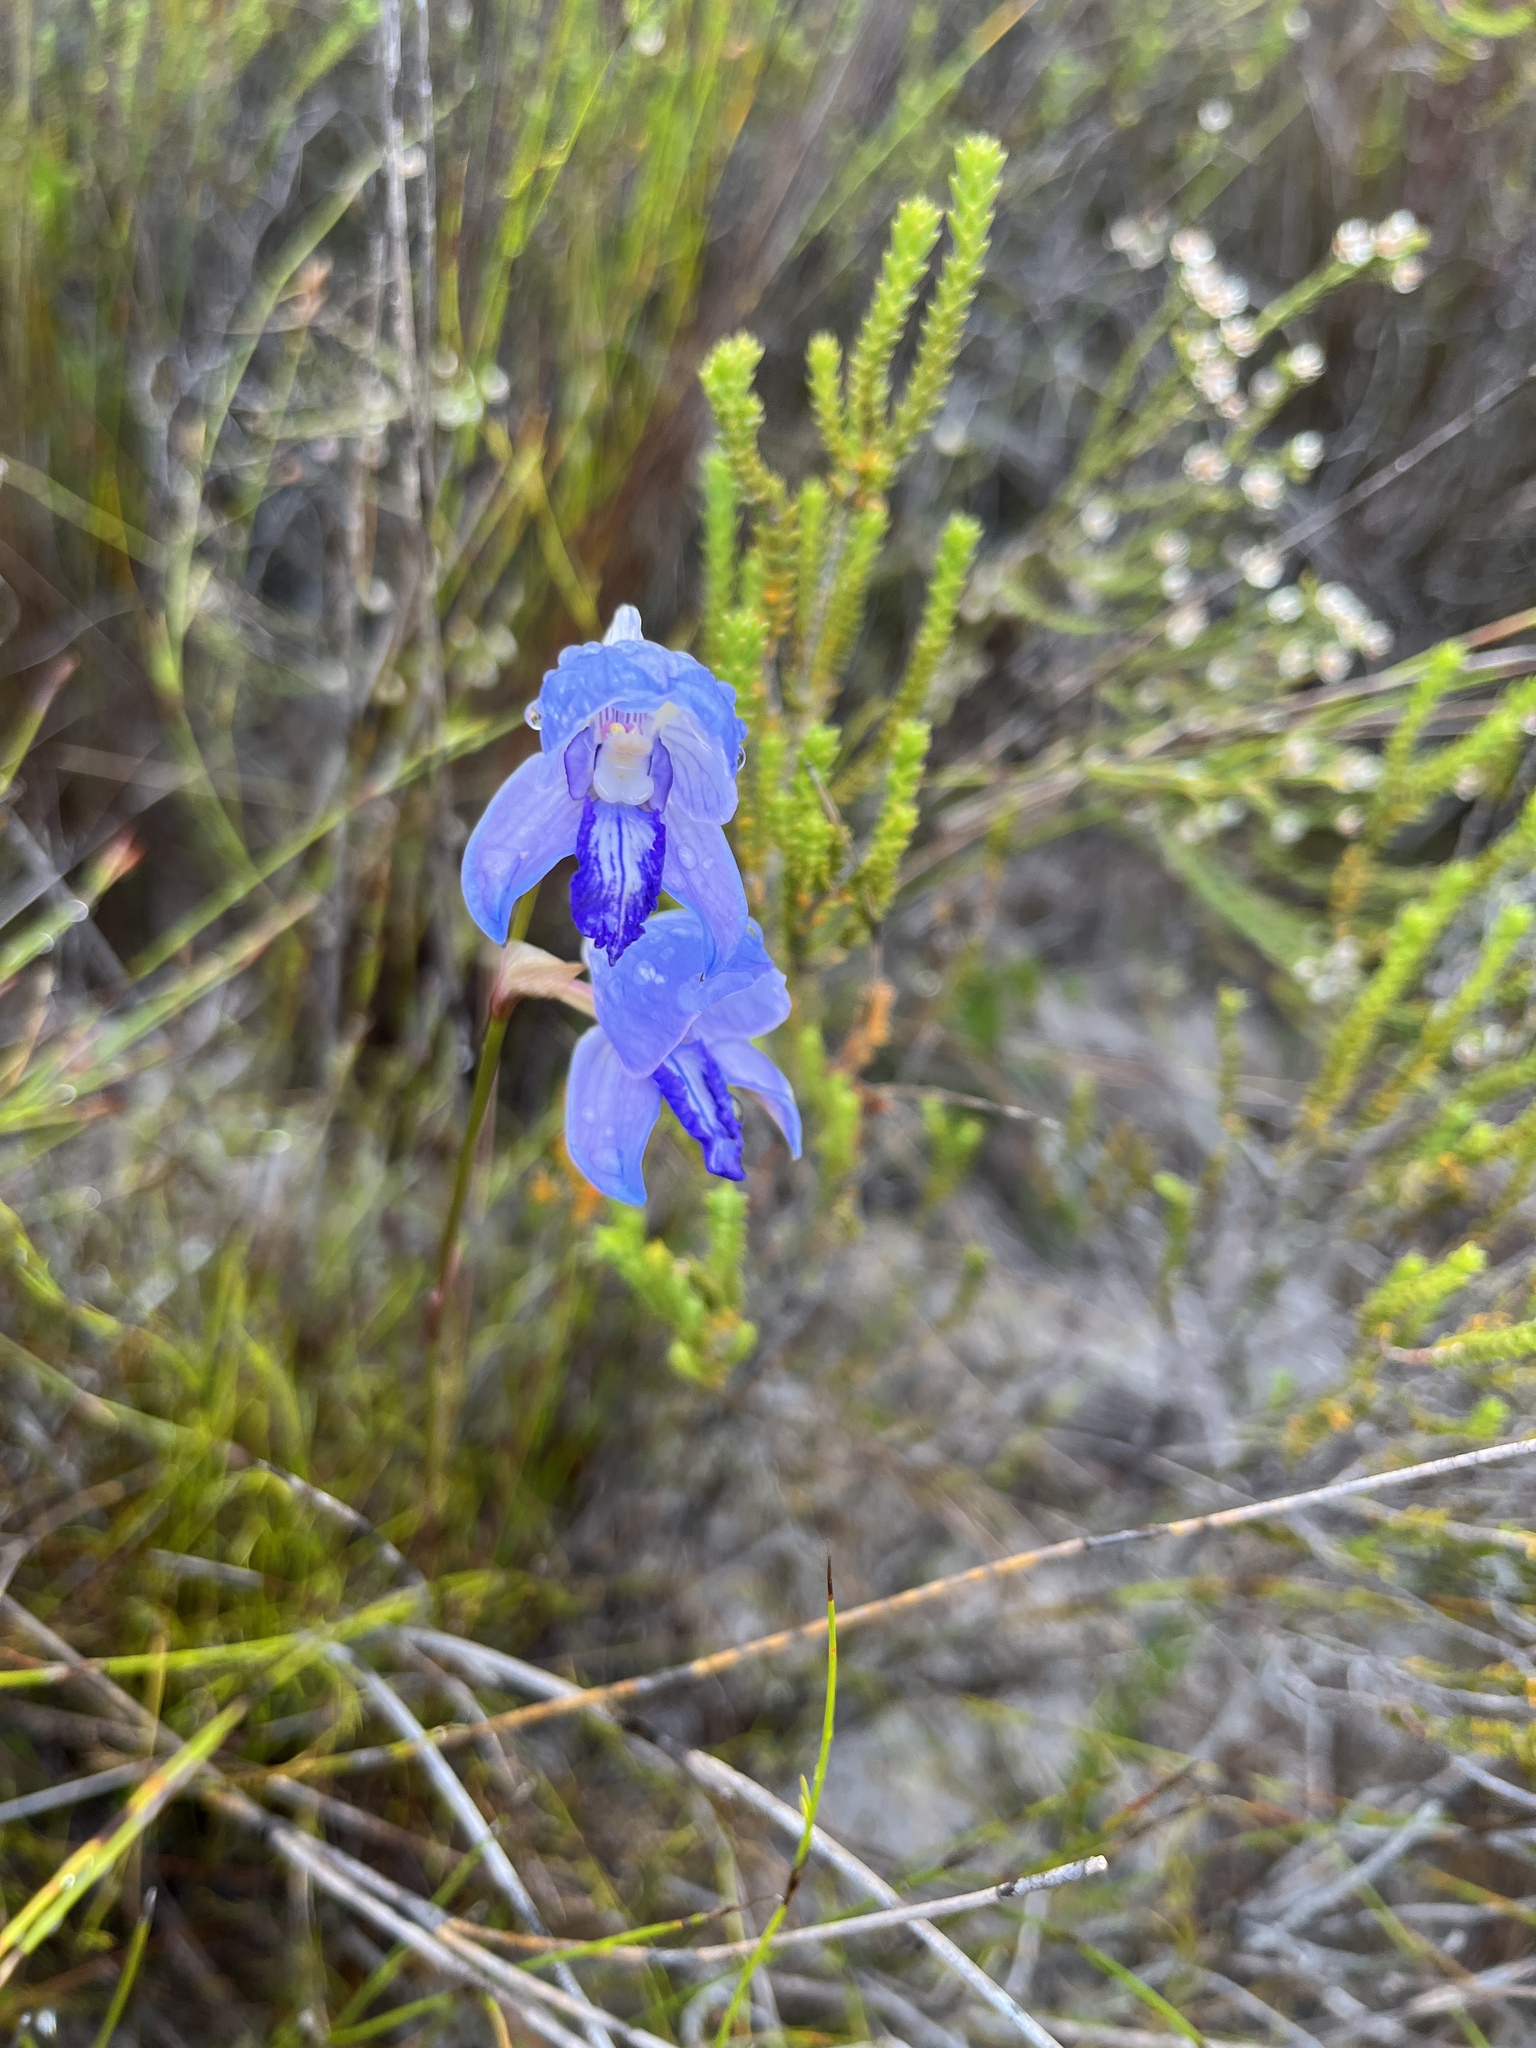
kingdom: Plantae
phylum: Tracheophyta
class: Liliopsida
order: Asparagales
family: Orchidaceae
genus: Disa
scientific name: Disa purpurascens
